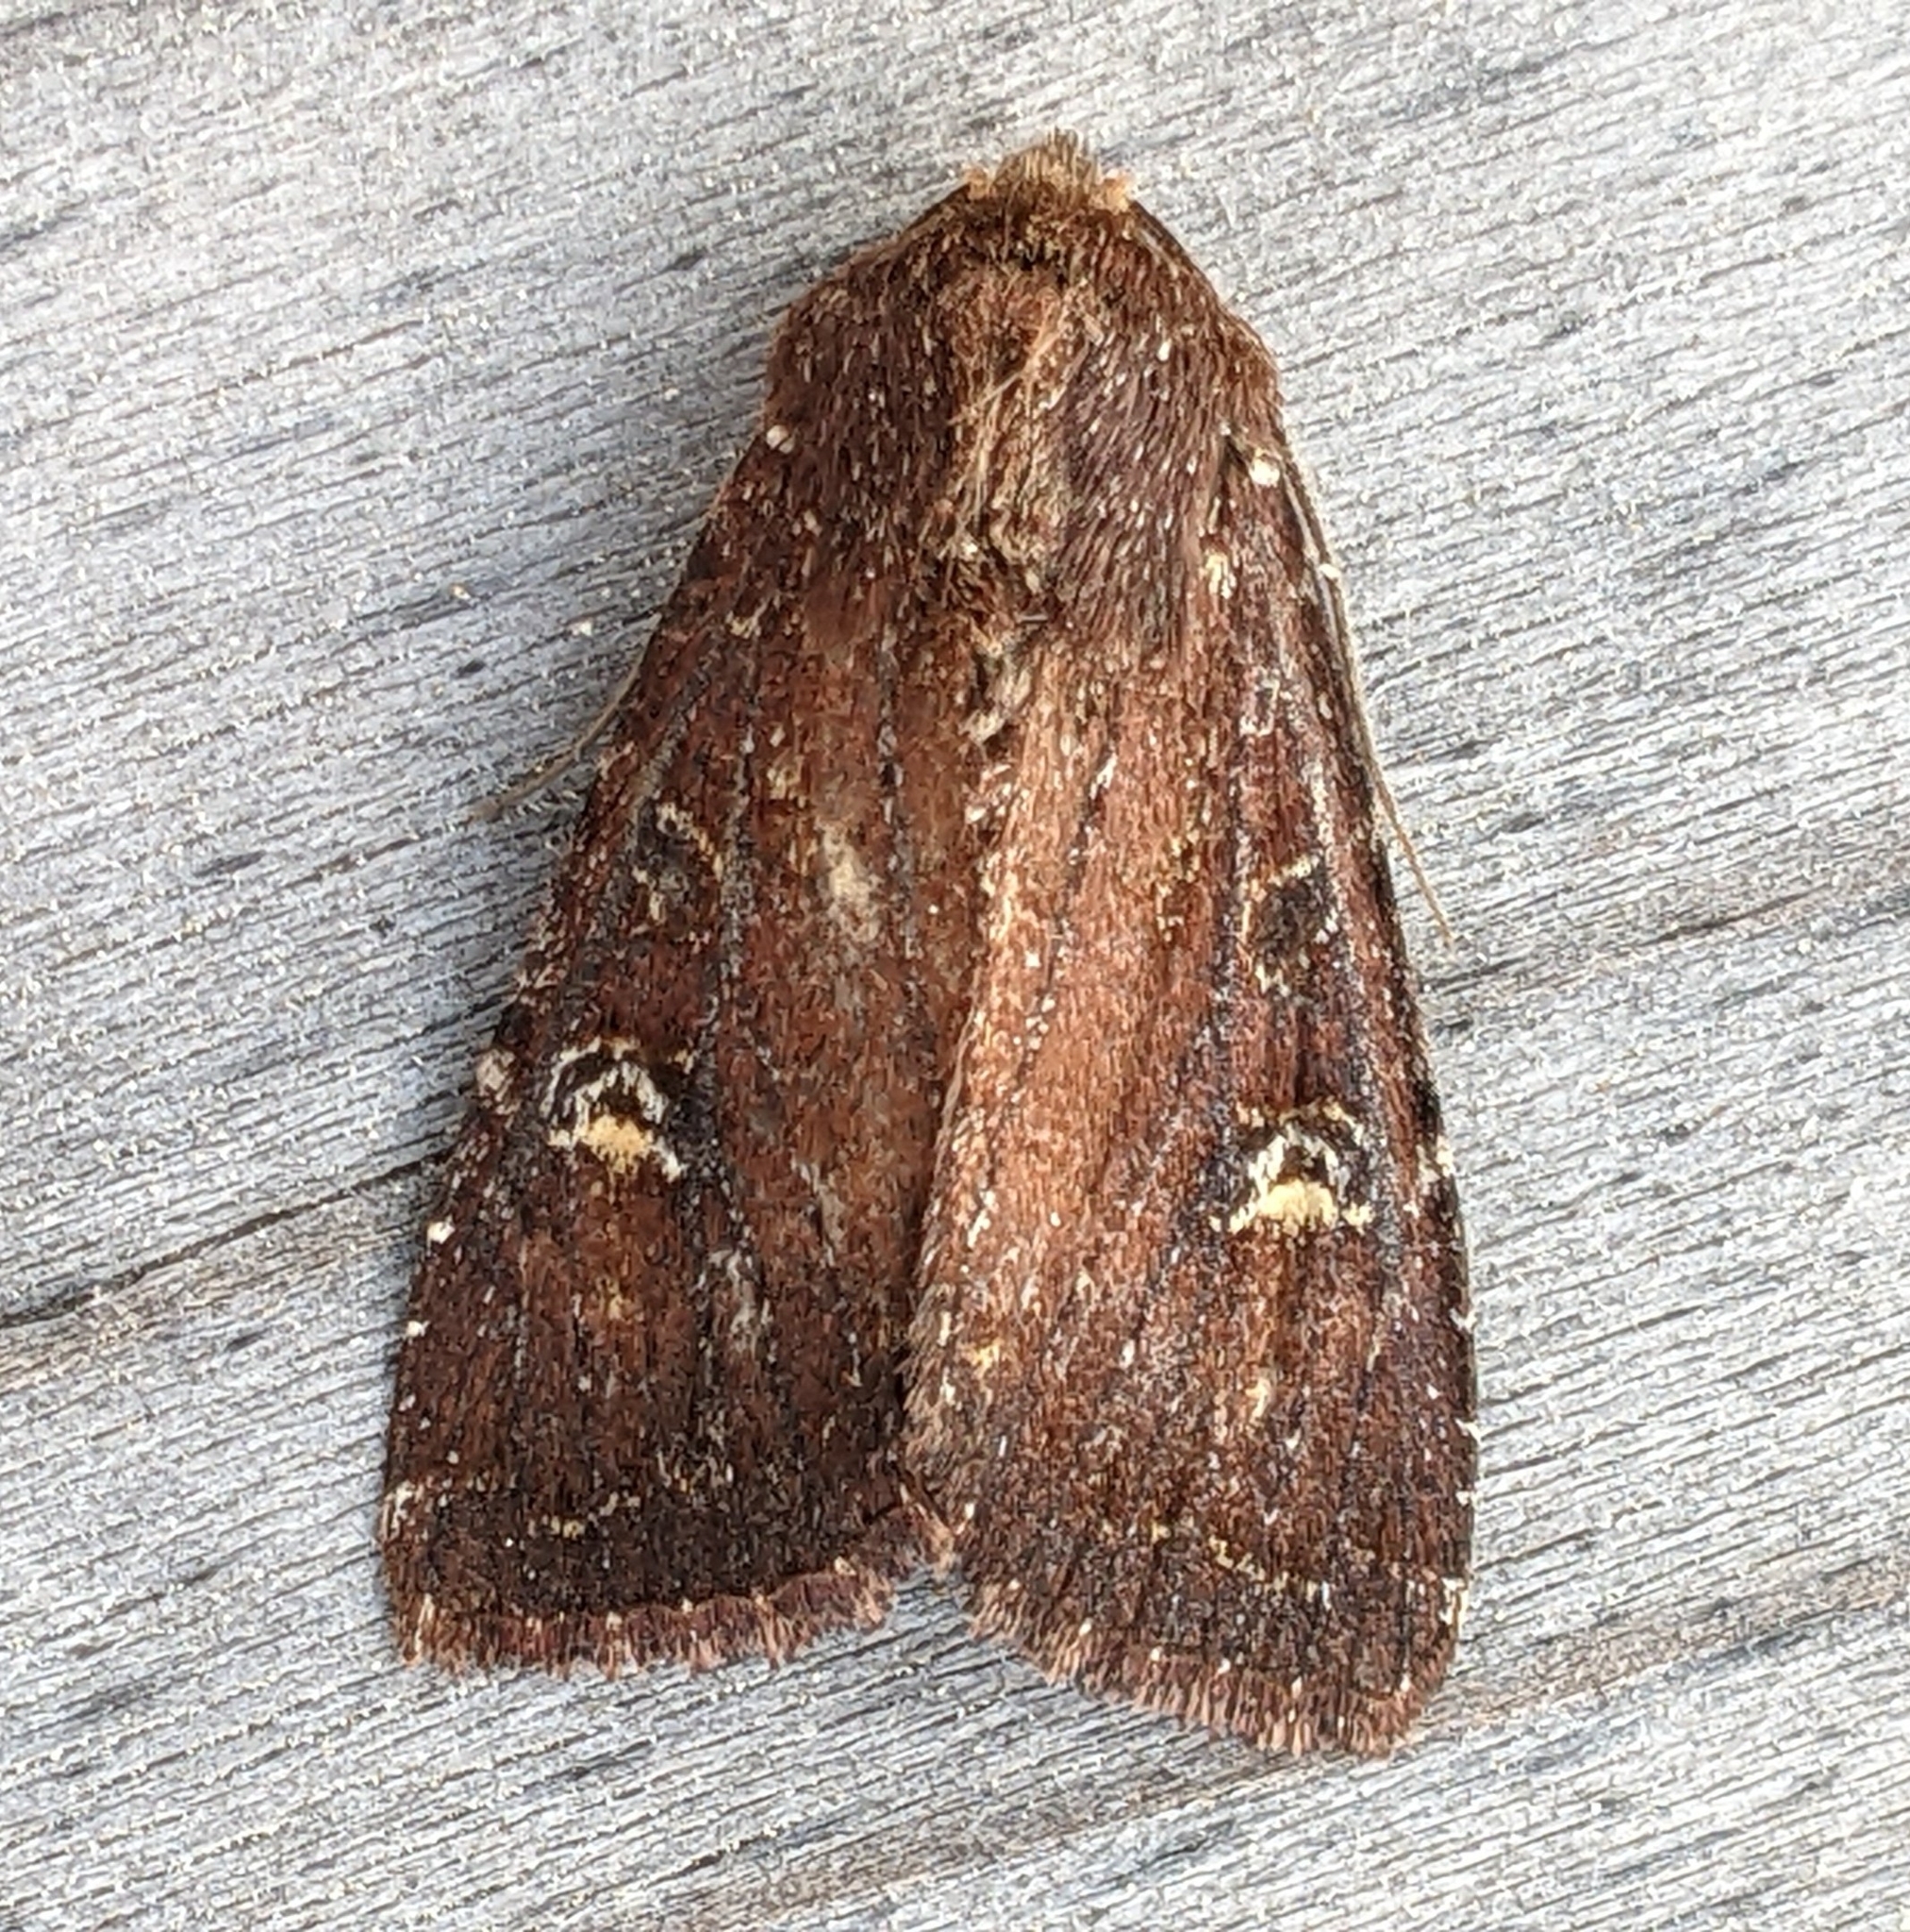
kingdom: Animalia
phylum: Arthropoda
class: Insecta
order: Lepidoptera
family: Noctuidae
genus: Apamea
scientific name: Apamea cogitata
